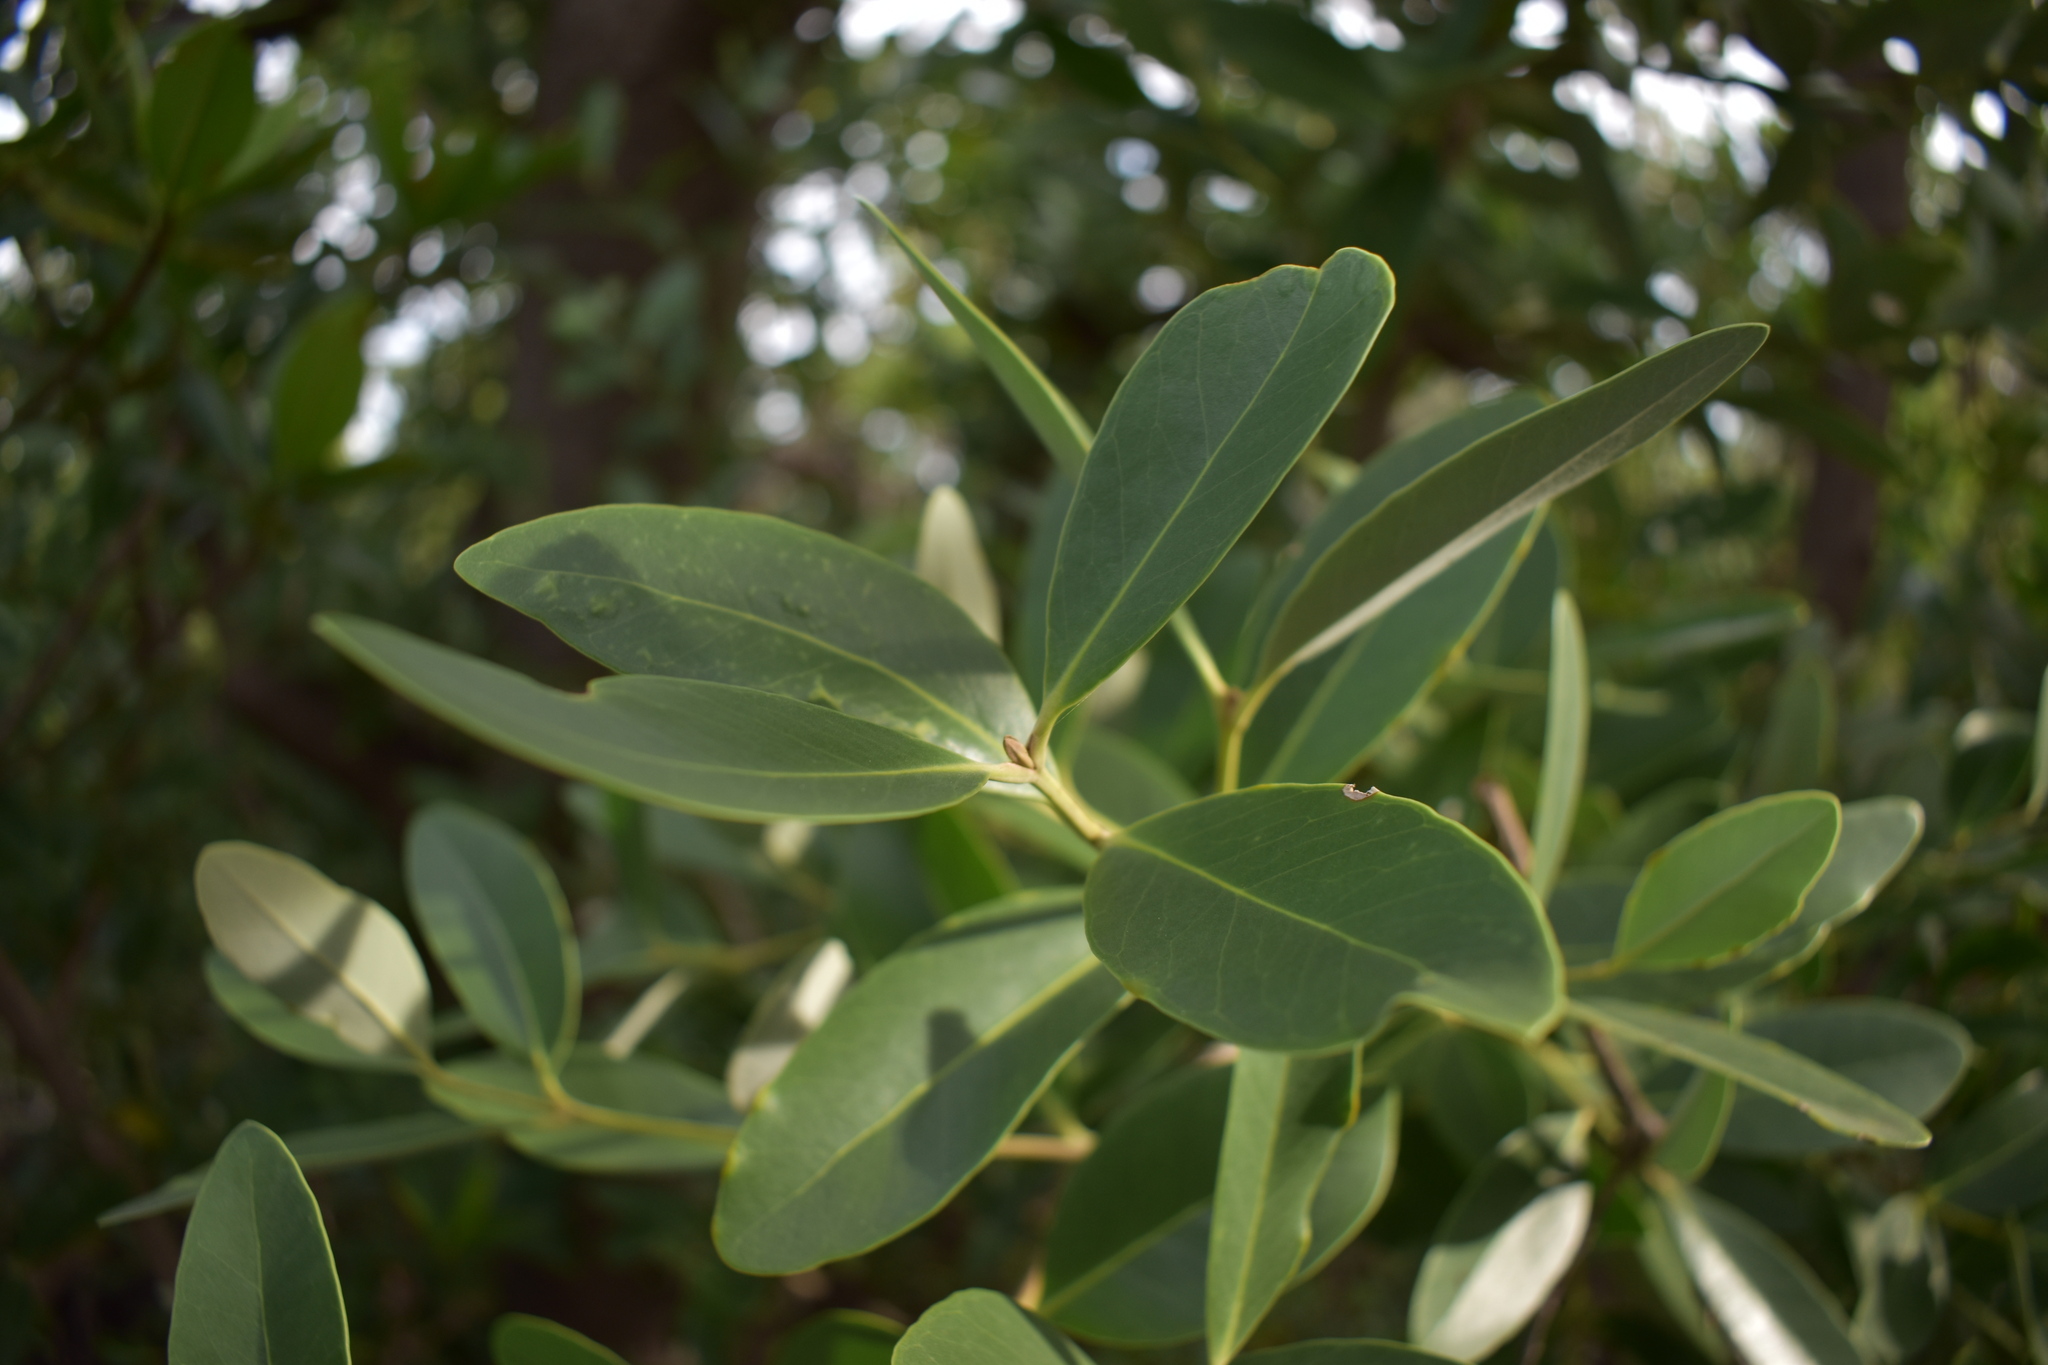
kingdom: Plantae
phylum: Tracheophyta
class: Magnoliopsida
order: Lamiales
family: Acanthaceae
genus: Avicennia
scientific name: Avicennia germinans
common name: Black mangrove
